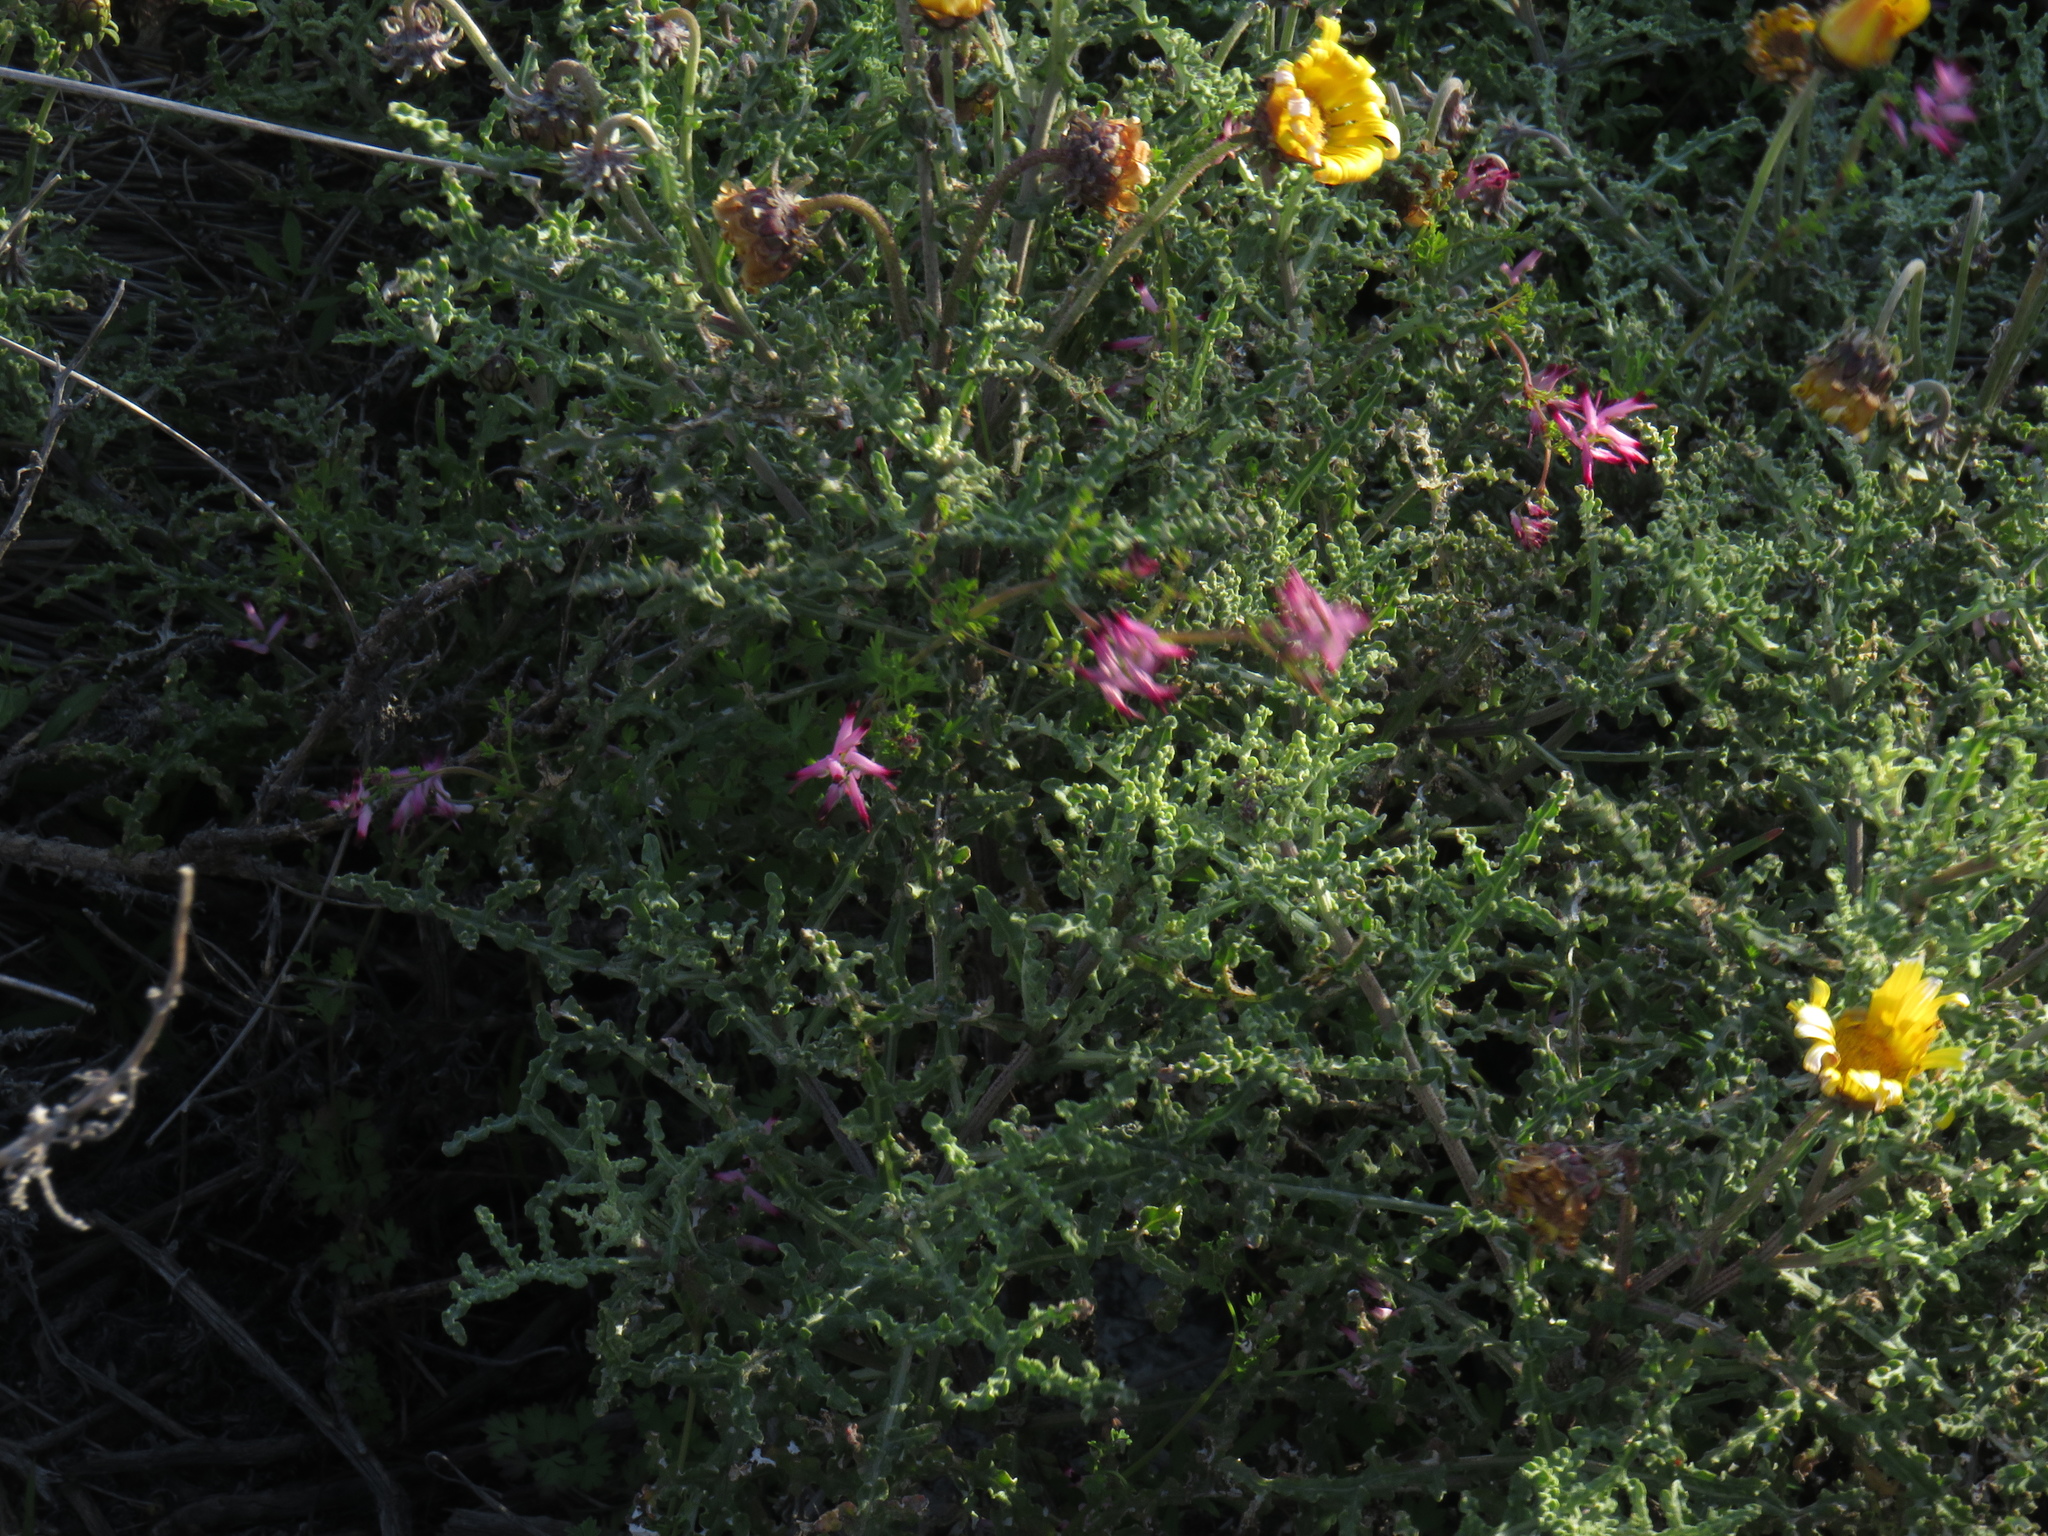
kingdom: Plantae
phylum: Tracheophyta
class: Magnoliopsida
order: Ranunculales
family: Papaveraceae
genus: Fumaria
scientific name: Fumaria muralis
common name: Common ramping-fumitory
